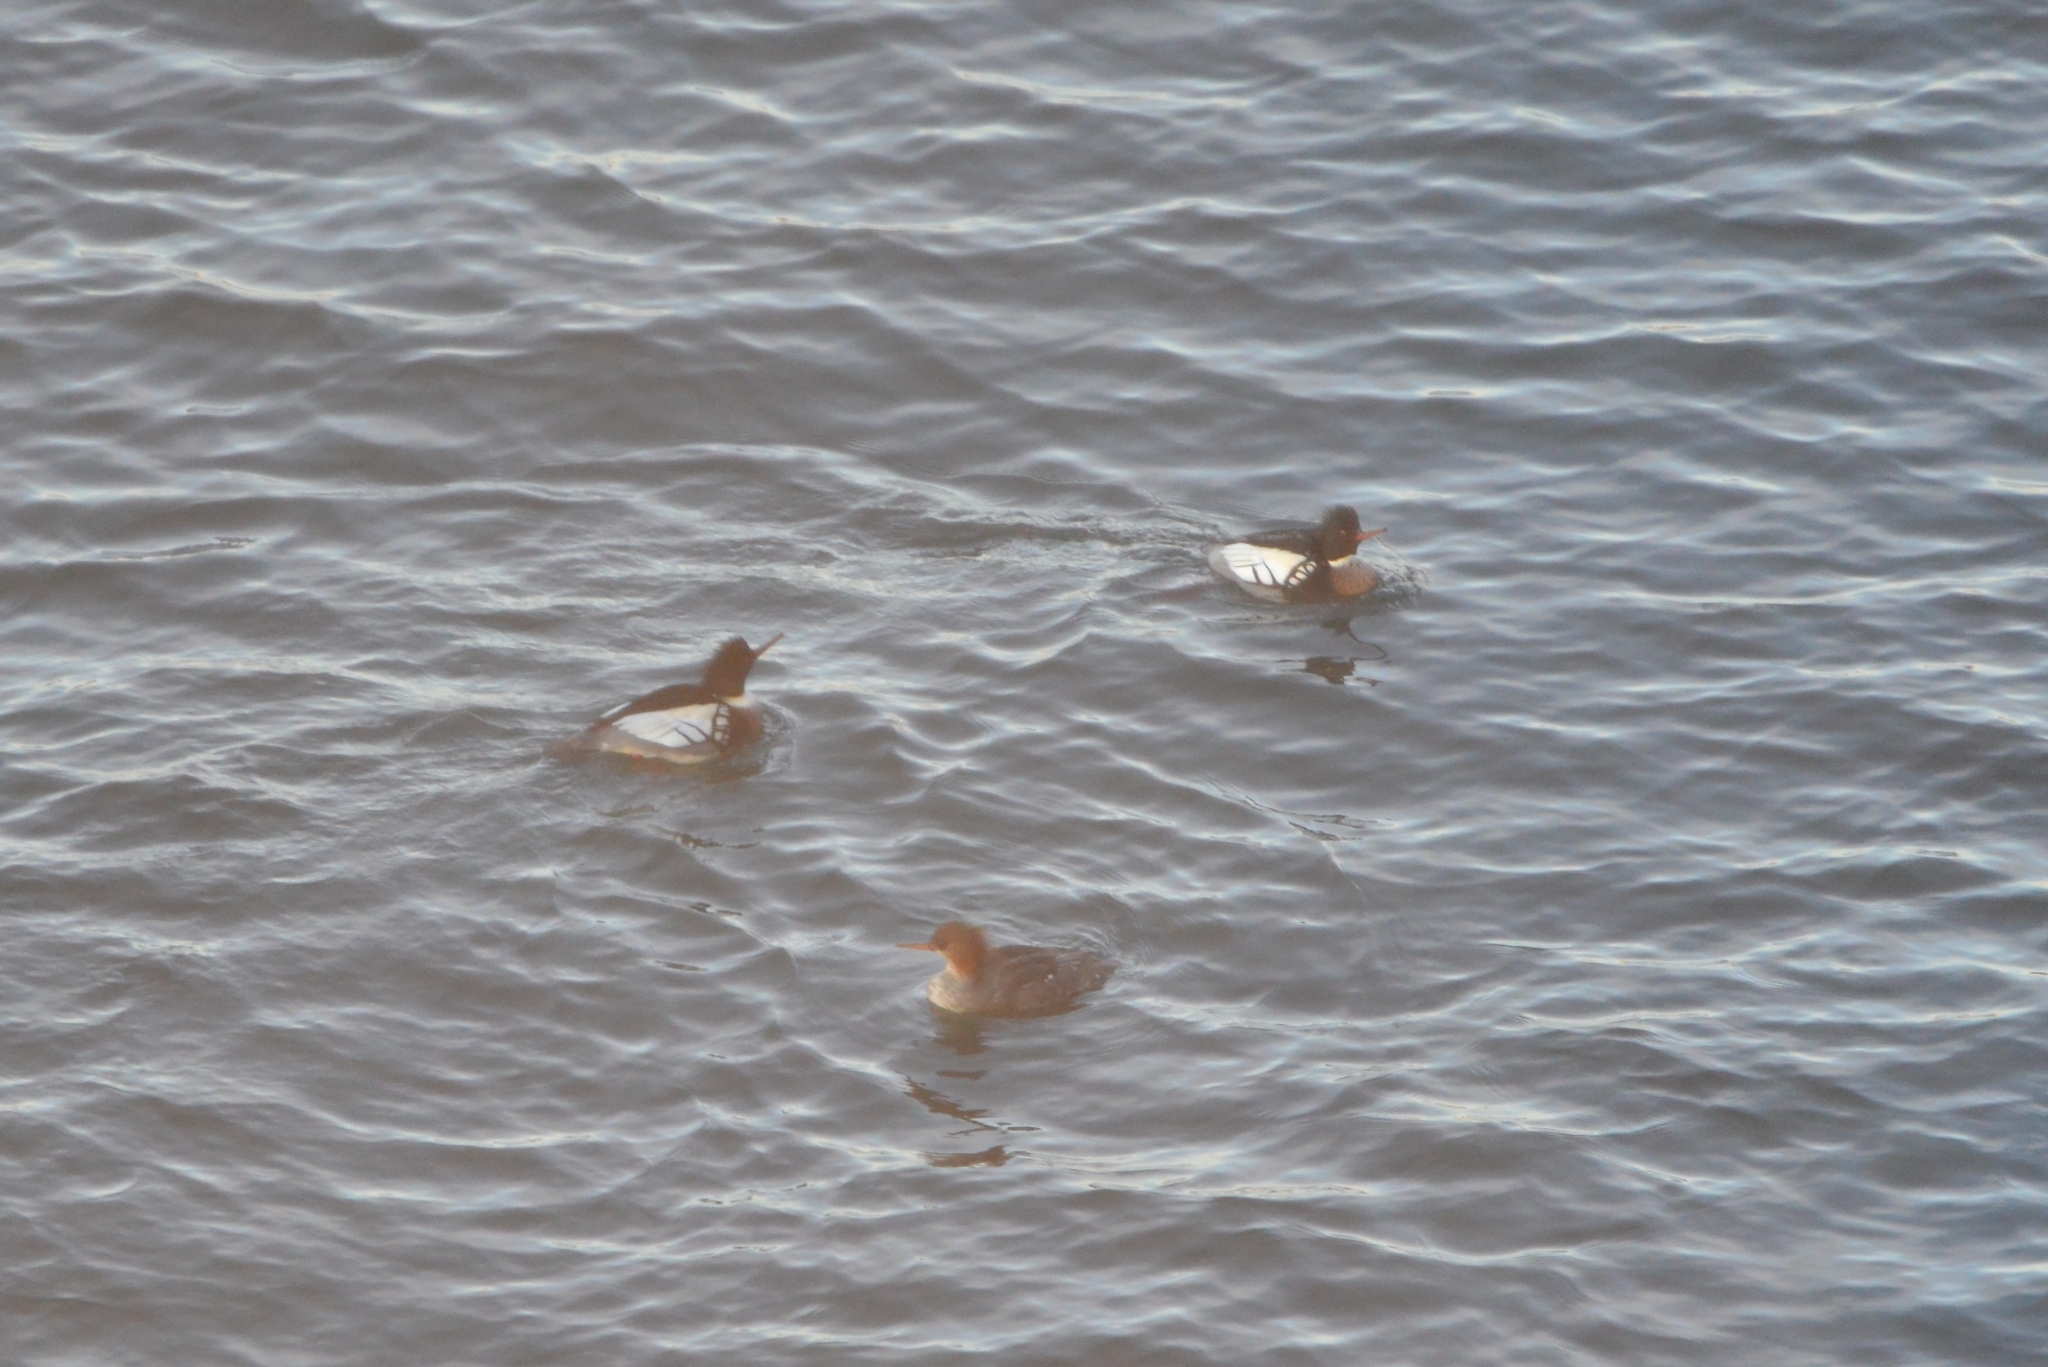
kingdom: Animalia
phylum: Chordata
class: Aves
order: Anseriformes
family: Anatidae
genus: Mergus
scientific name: Mergus serrator
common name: Red-breasted merganser
